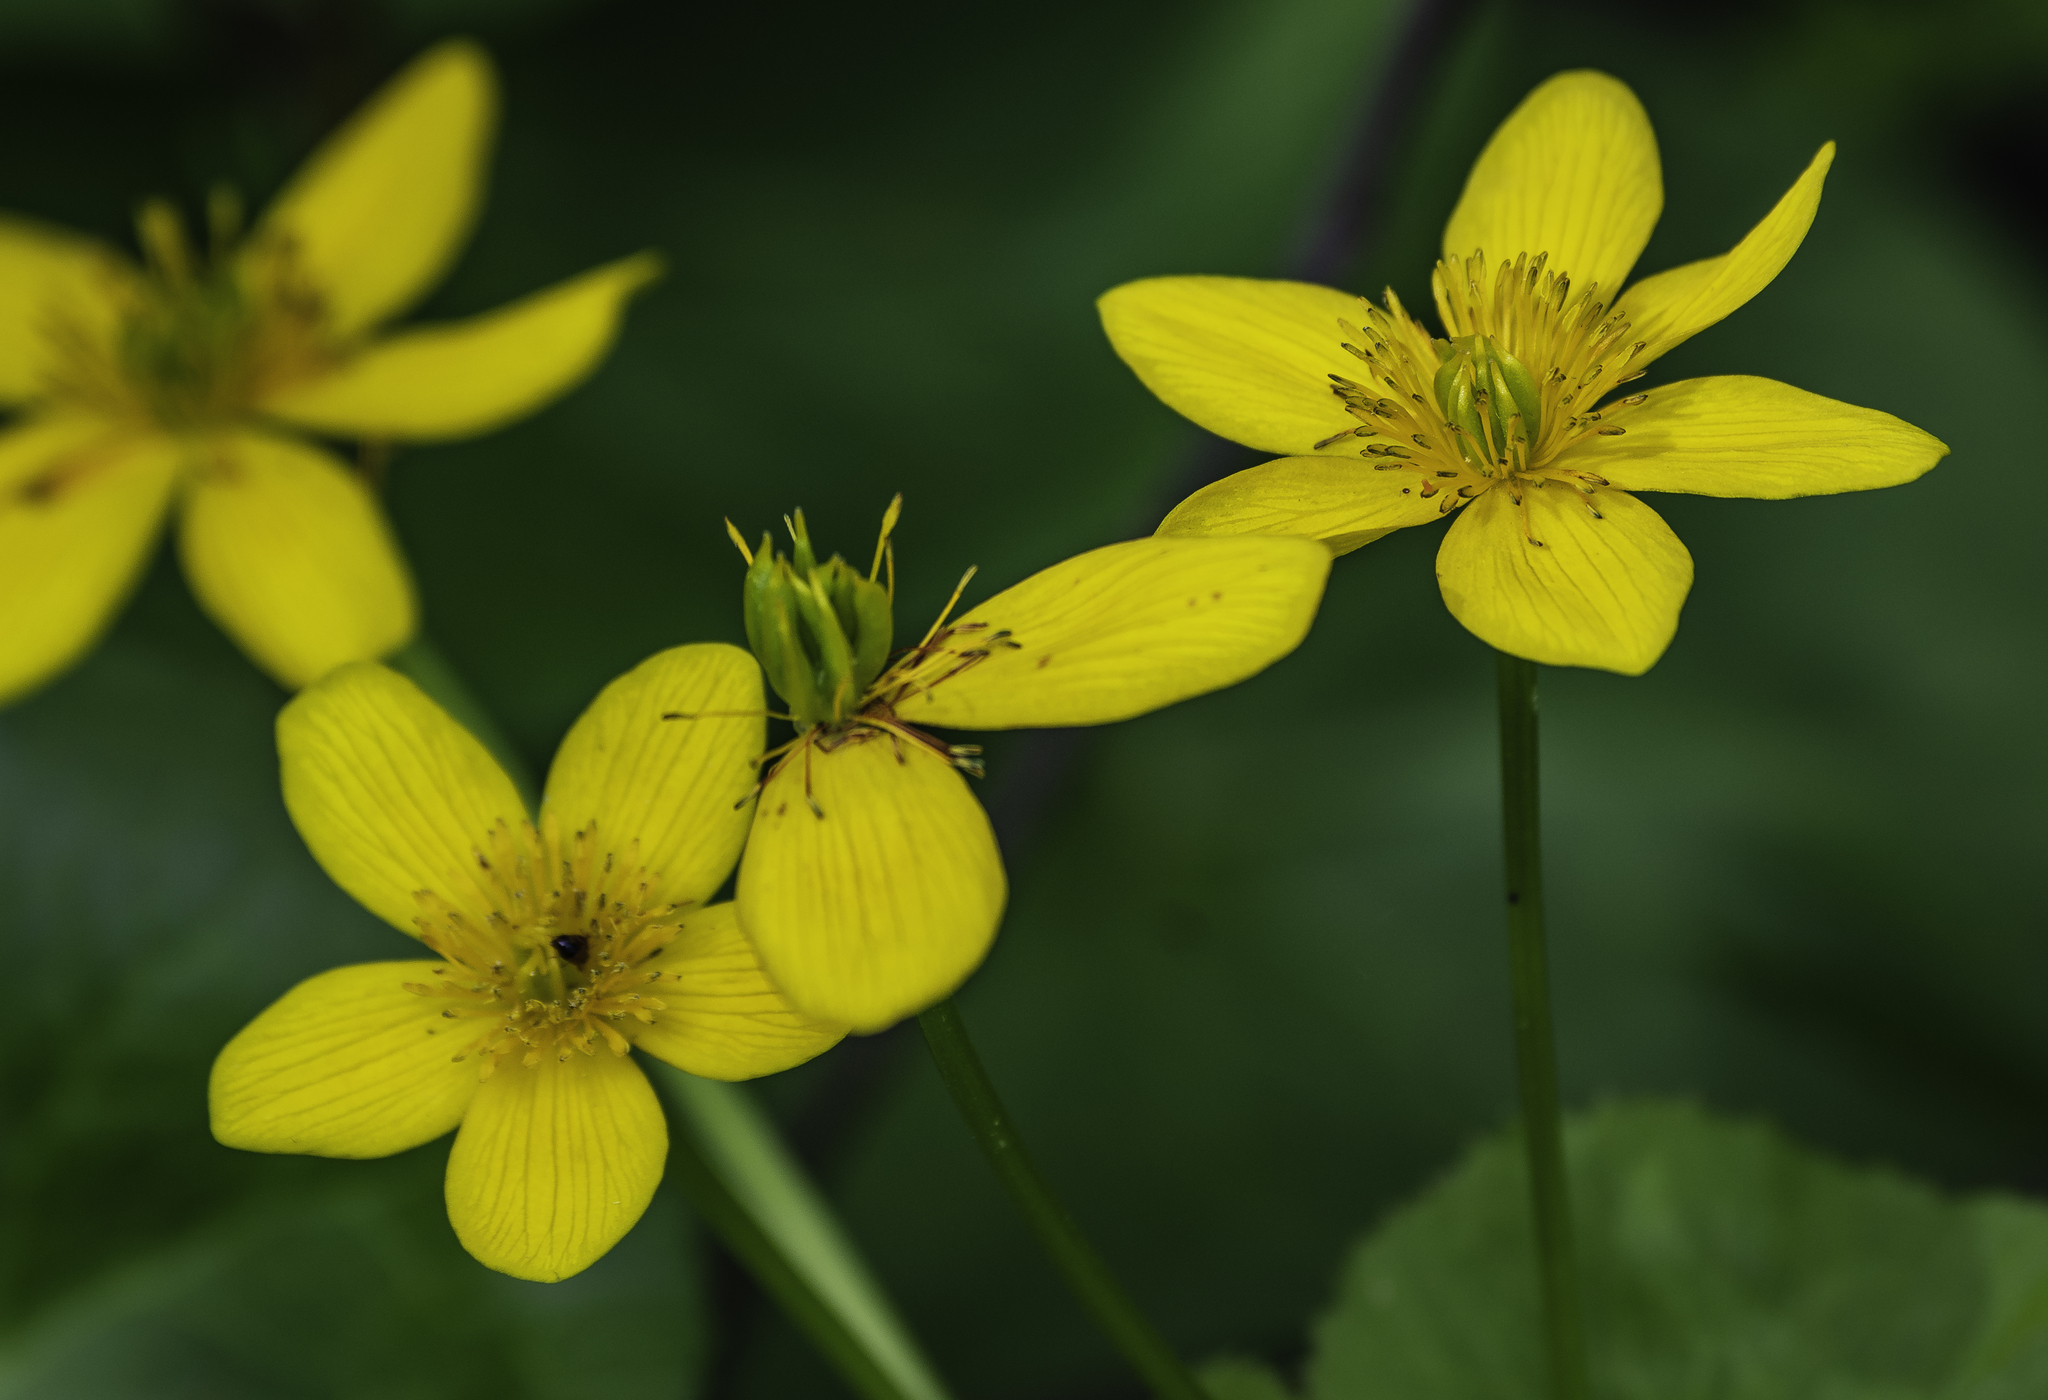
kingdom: Plantae
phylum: Tracheophyta
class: Magnoliopsida
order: Ranunculales
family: Ranunculaceae
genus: Caltha
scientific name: Caltha palustris
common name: Marsh marigold
